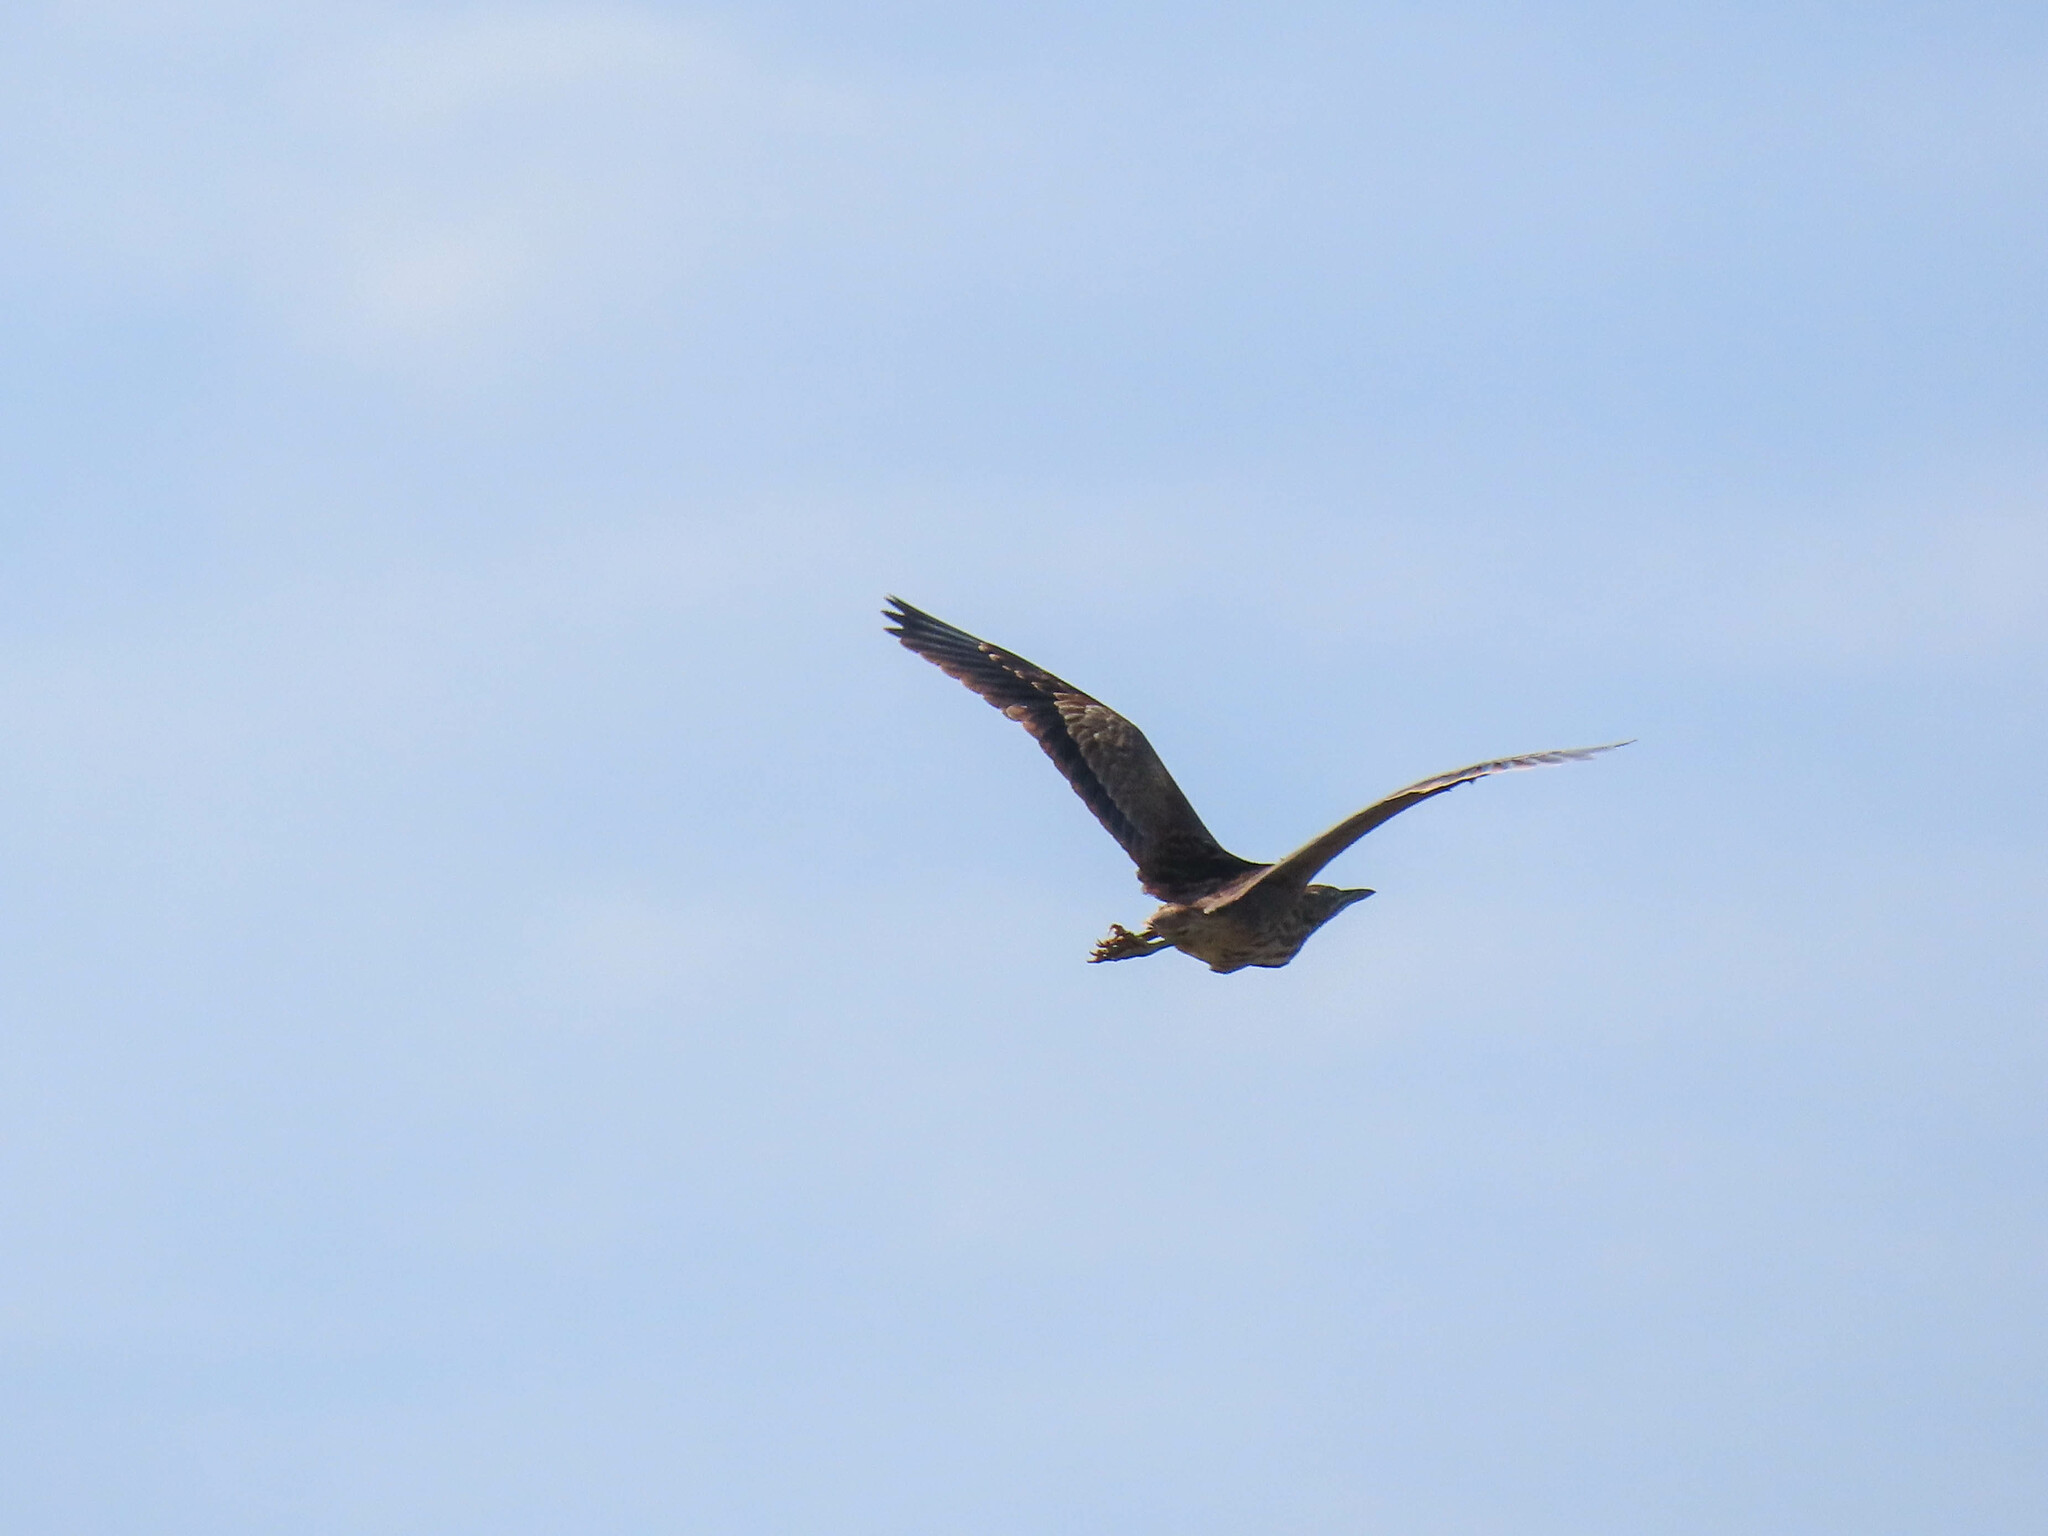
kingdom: Animalia
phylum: Chordata
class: Aves
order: Pelecaniformes
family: Ardeidae
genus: Botaurus
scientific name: Botaurus lentiginosus
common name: American bittern
